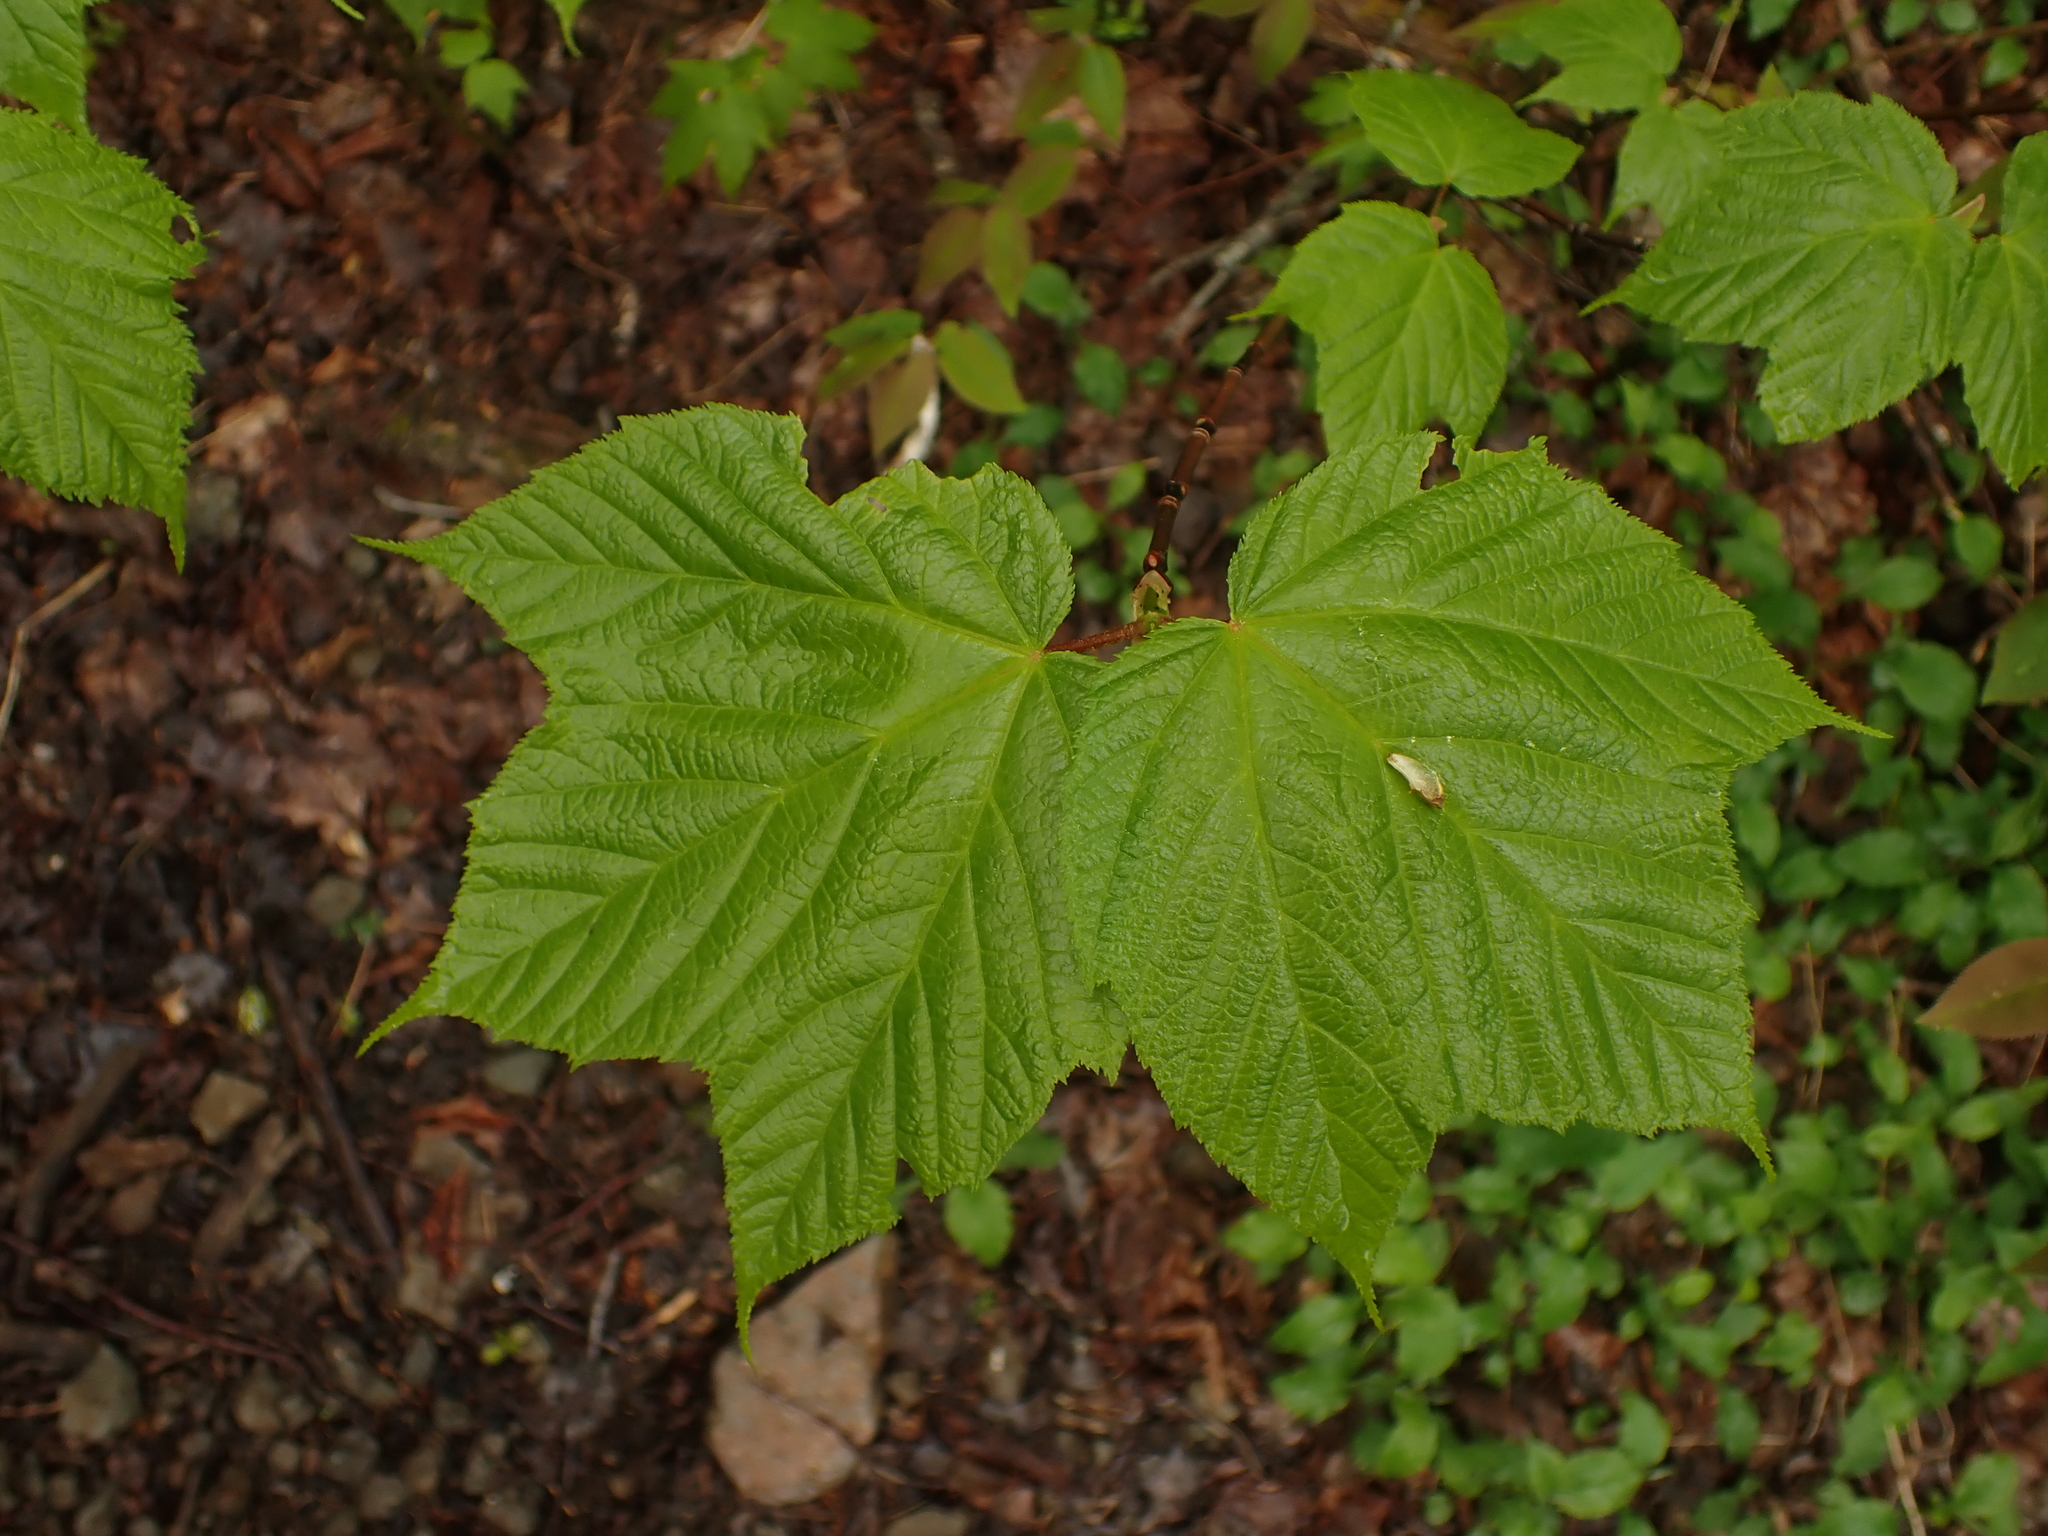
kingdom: Plantae
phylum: Tracheophyta
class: Magnoliopsida
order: Sapindales
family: Sapindaceae
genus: Acer
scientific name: Acer pensylvanicum
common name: Moosewood
